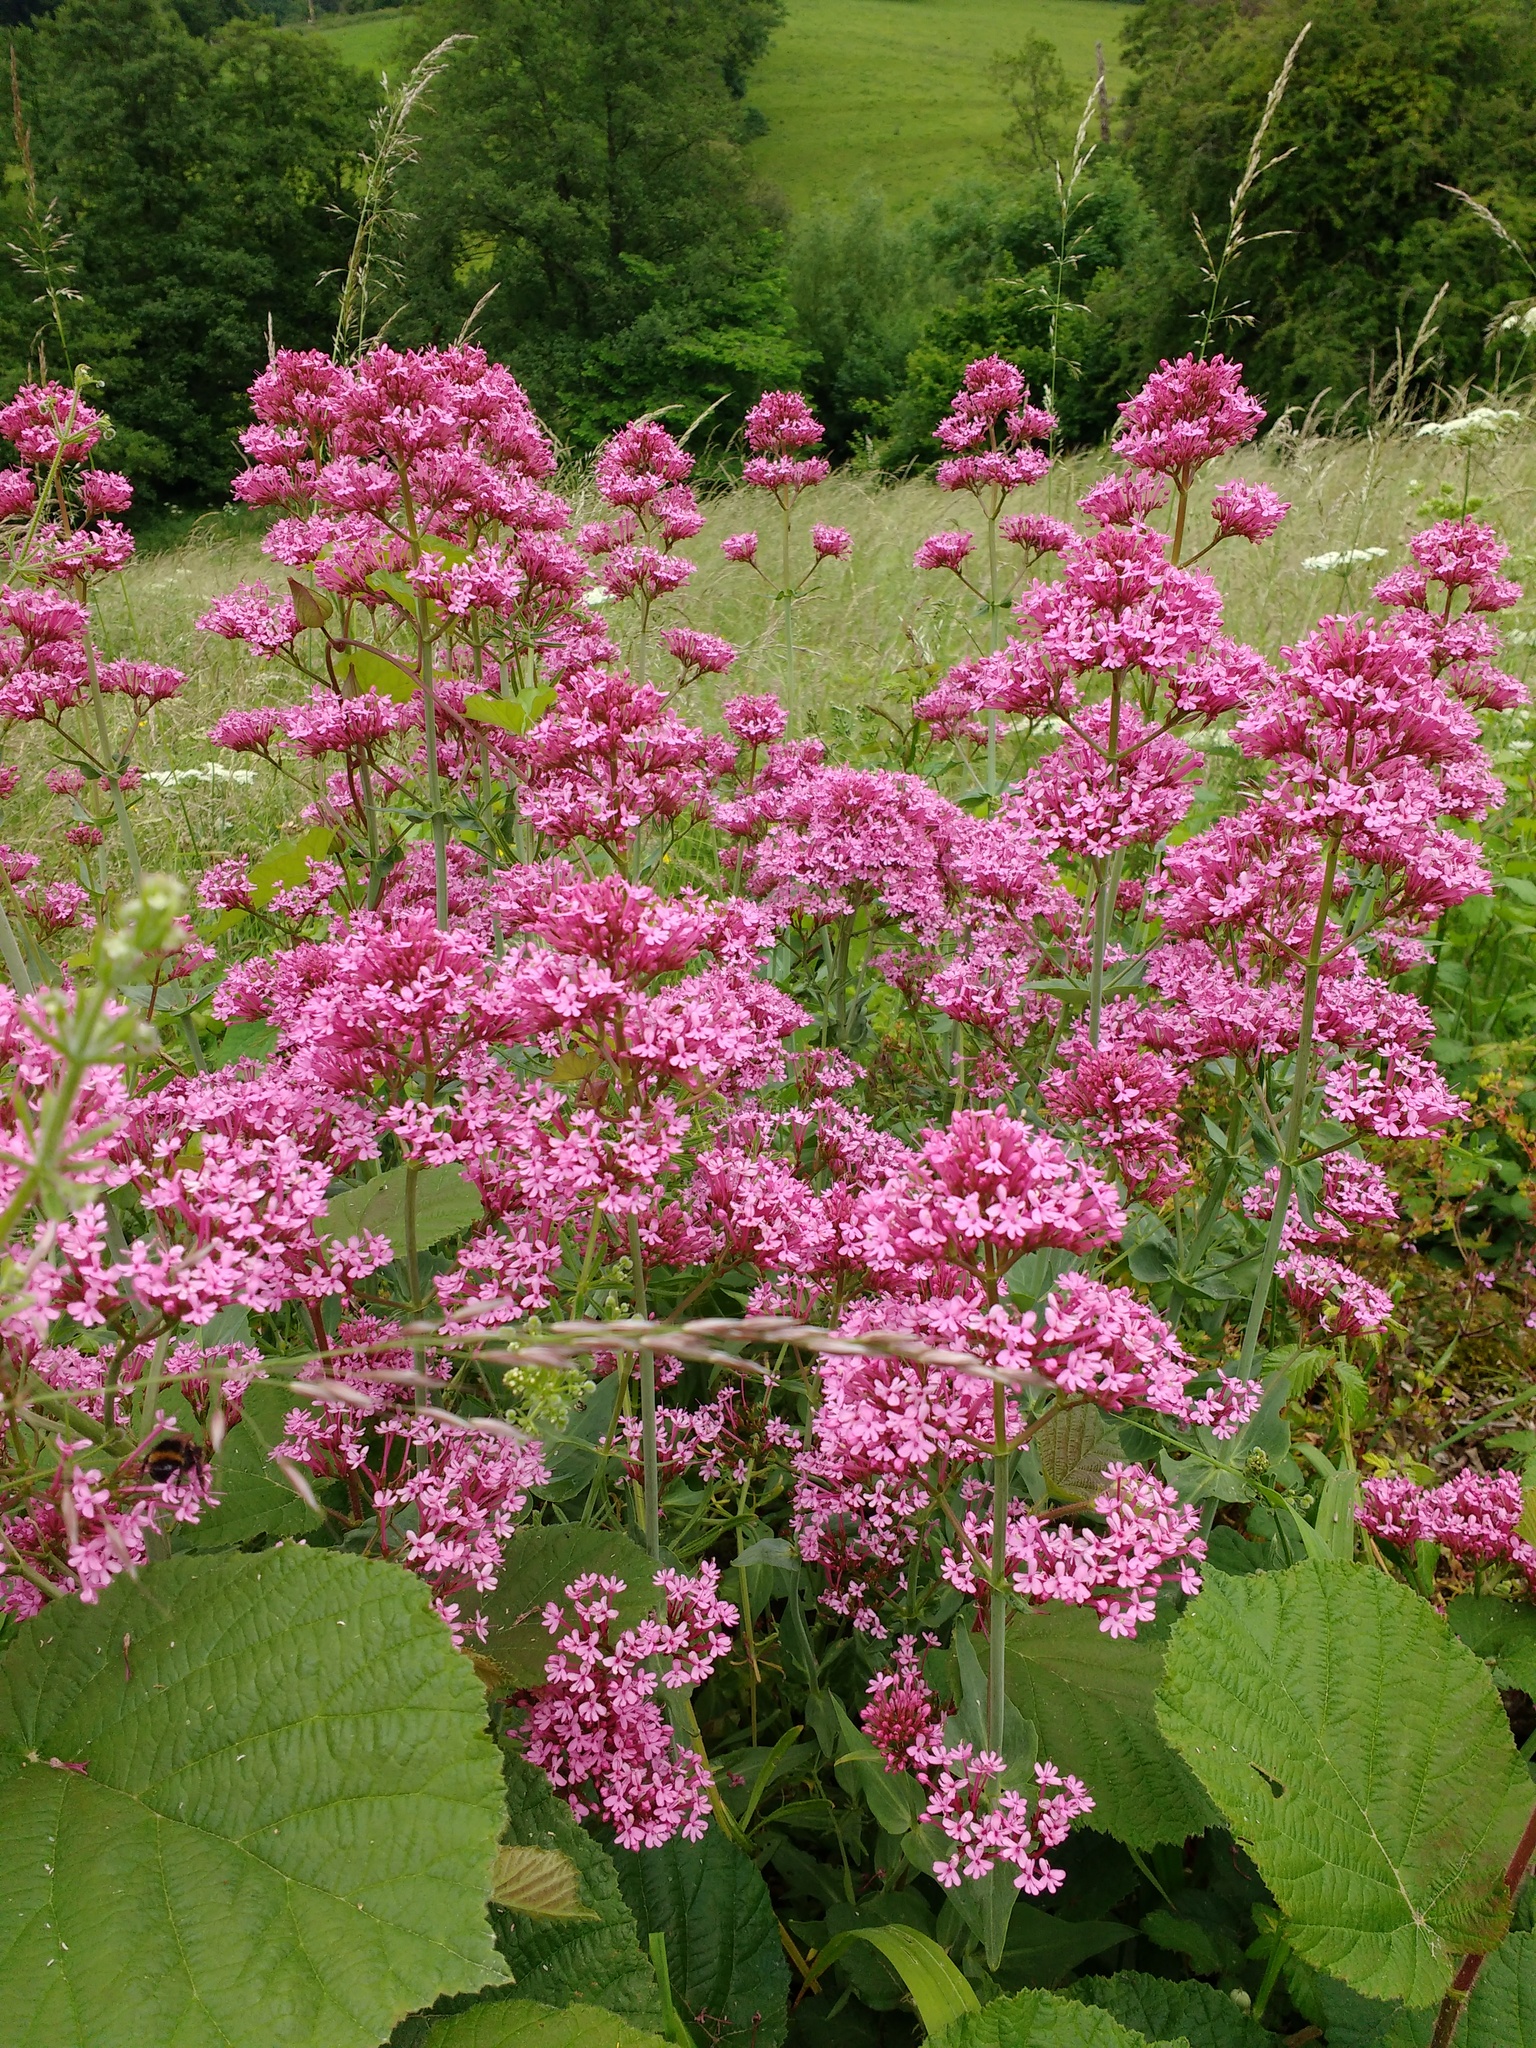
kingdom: Plantae
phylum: Tracheophyta
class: Magnoliopsida
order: Dipsacales
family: Caprifoliaceae
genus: Centranthus
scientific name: Centranthus ruber
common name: Red valerian
